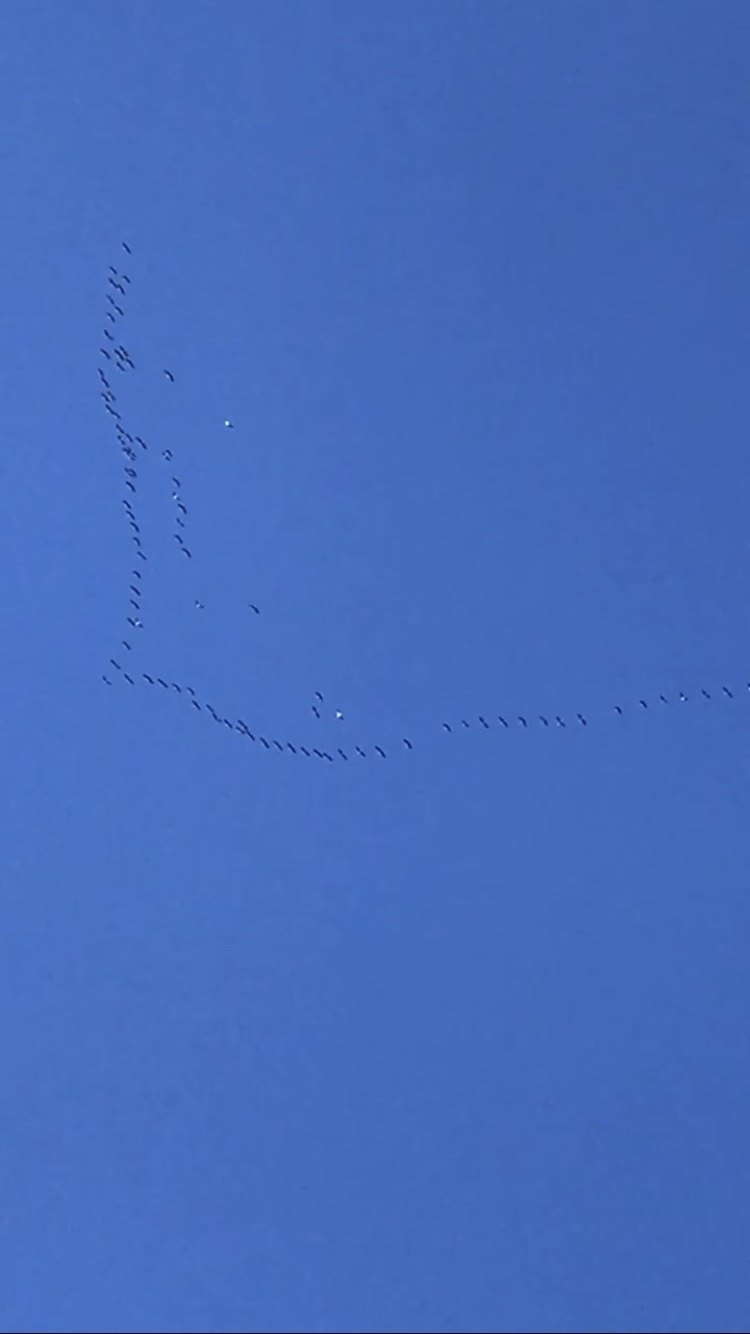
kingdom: Animalia
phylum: Chordata
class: Aves
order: Gruiformes
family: Gruidae
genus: Grus
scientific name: Grus grus
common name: Common crane
